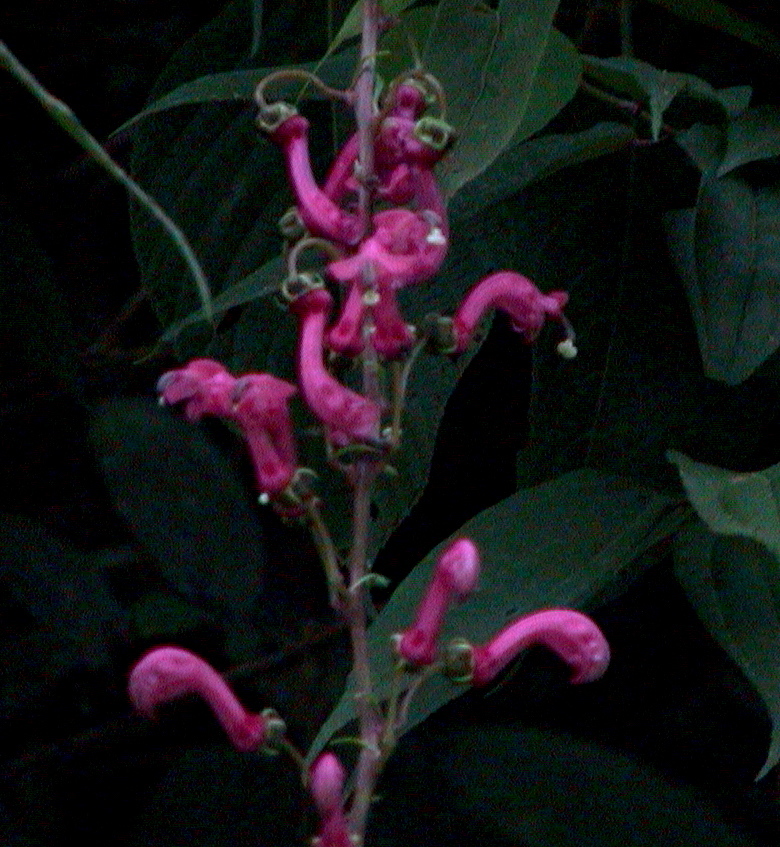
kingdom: Plantae
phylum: Tracheophyta
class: Magnoliopsida
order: Asterales
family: Campanulaceae
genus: Centropogon
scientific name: Centropogon urubambae
